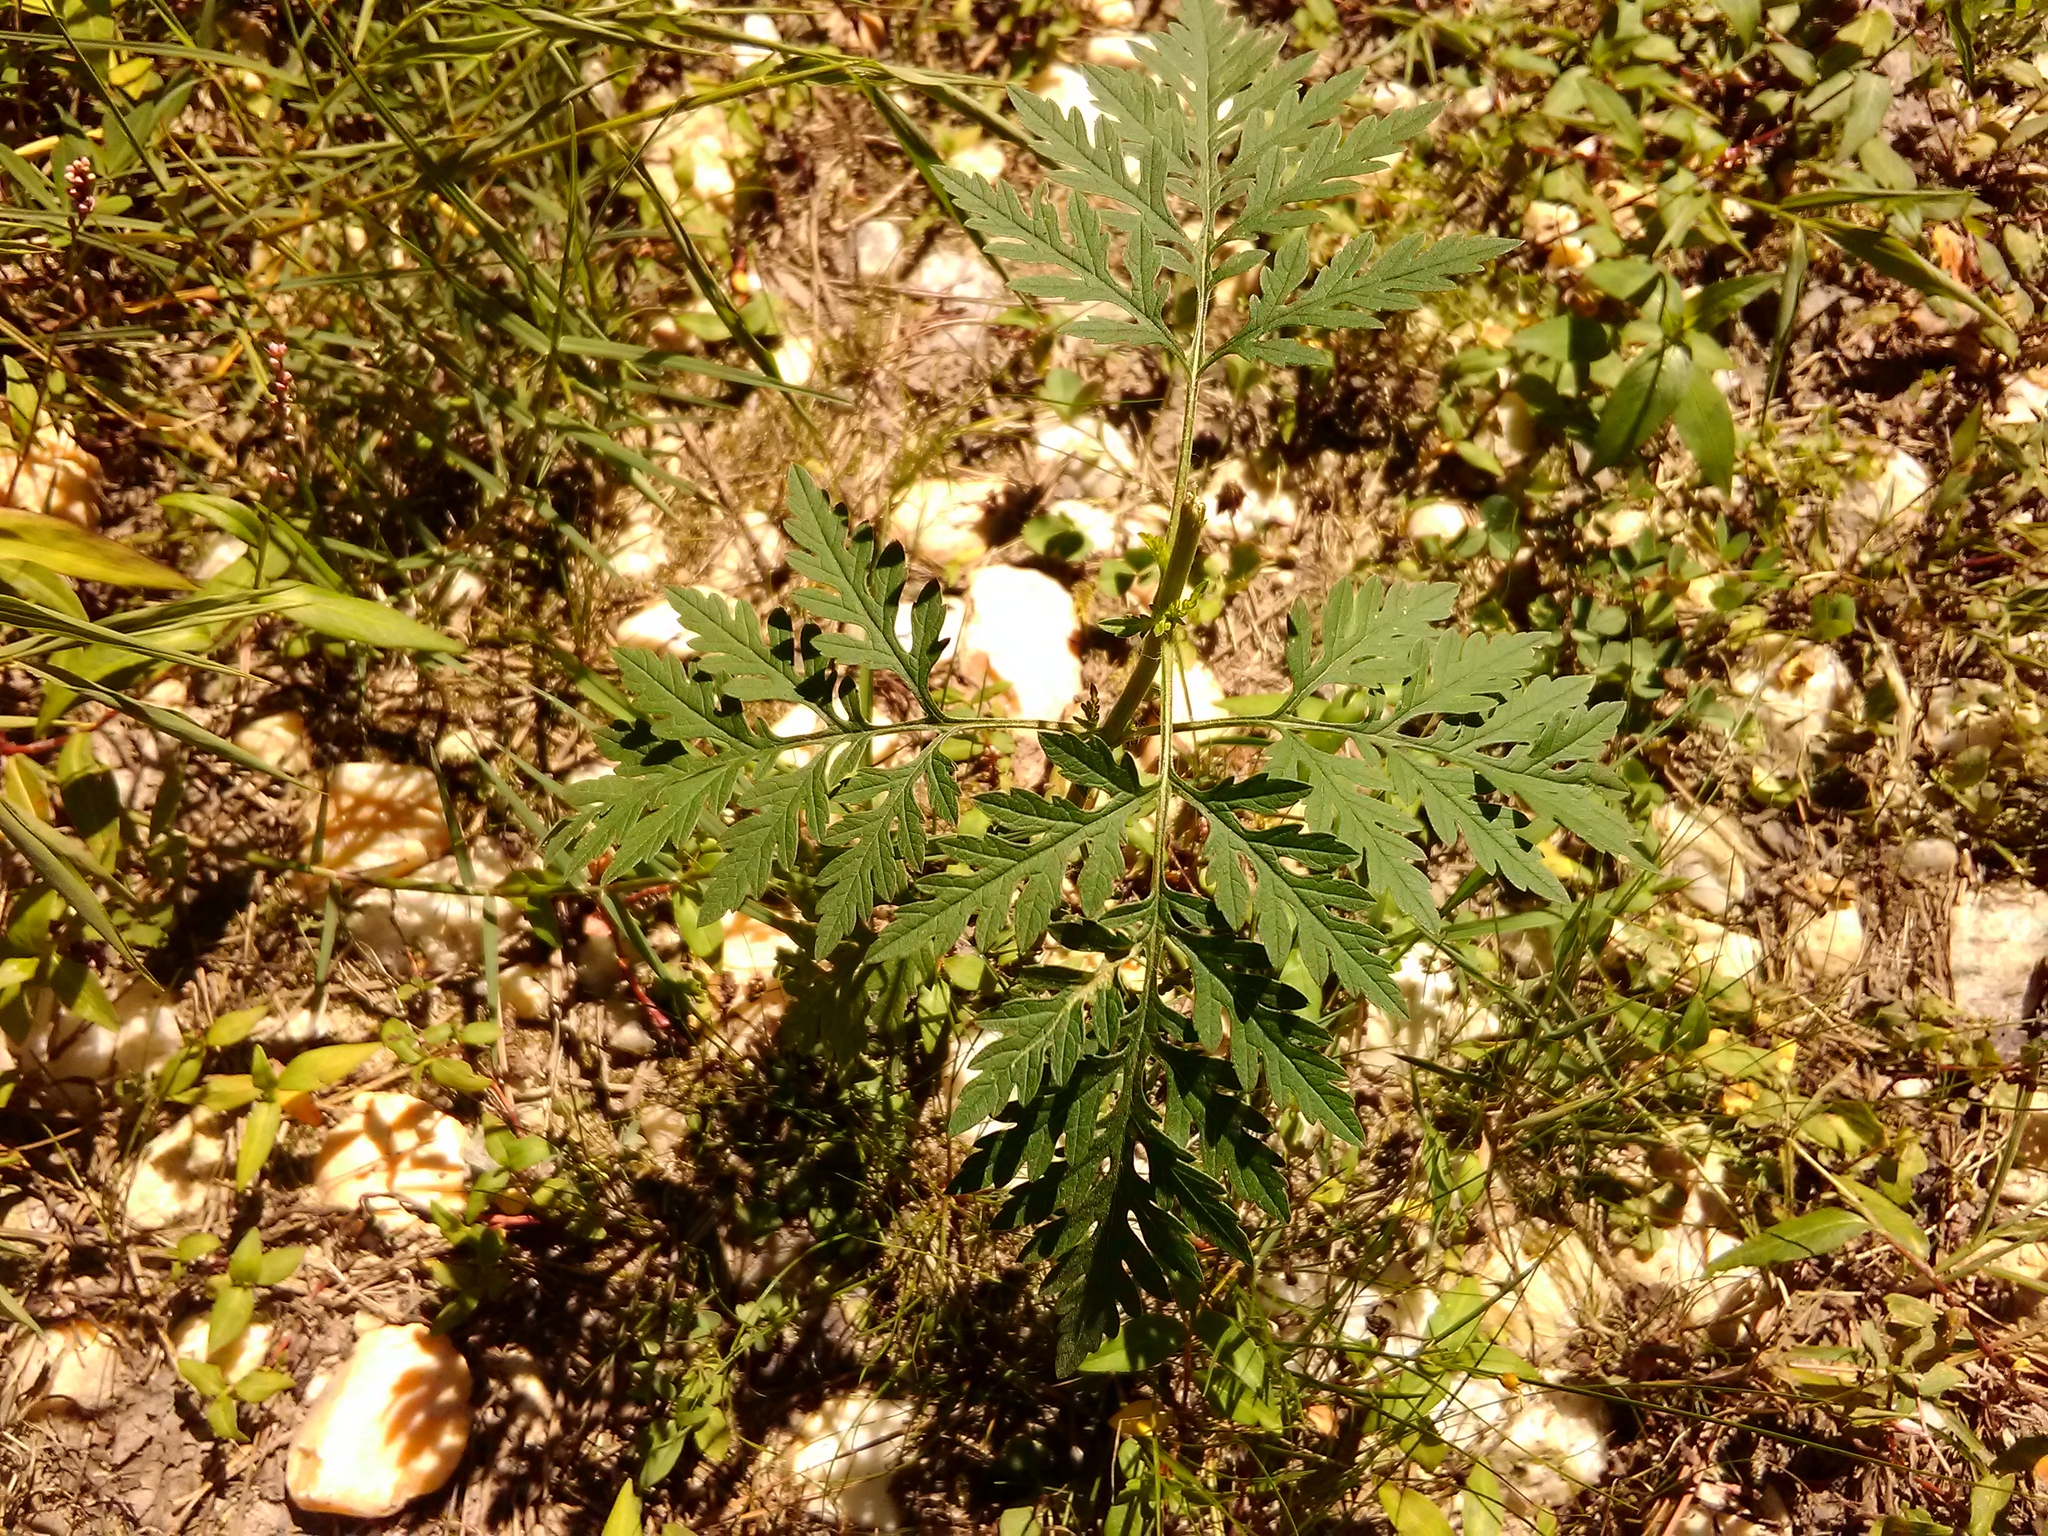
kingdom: Plantae
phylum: Tracheophyta
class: Magnoliopsida
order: Asterales
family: Asteraceae
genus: Ambrosia
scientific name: Ambrosia artemisiifolia
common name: Annual ragweed
